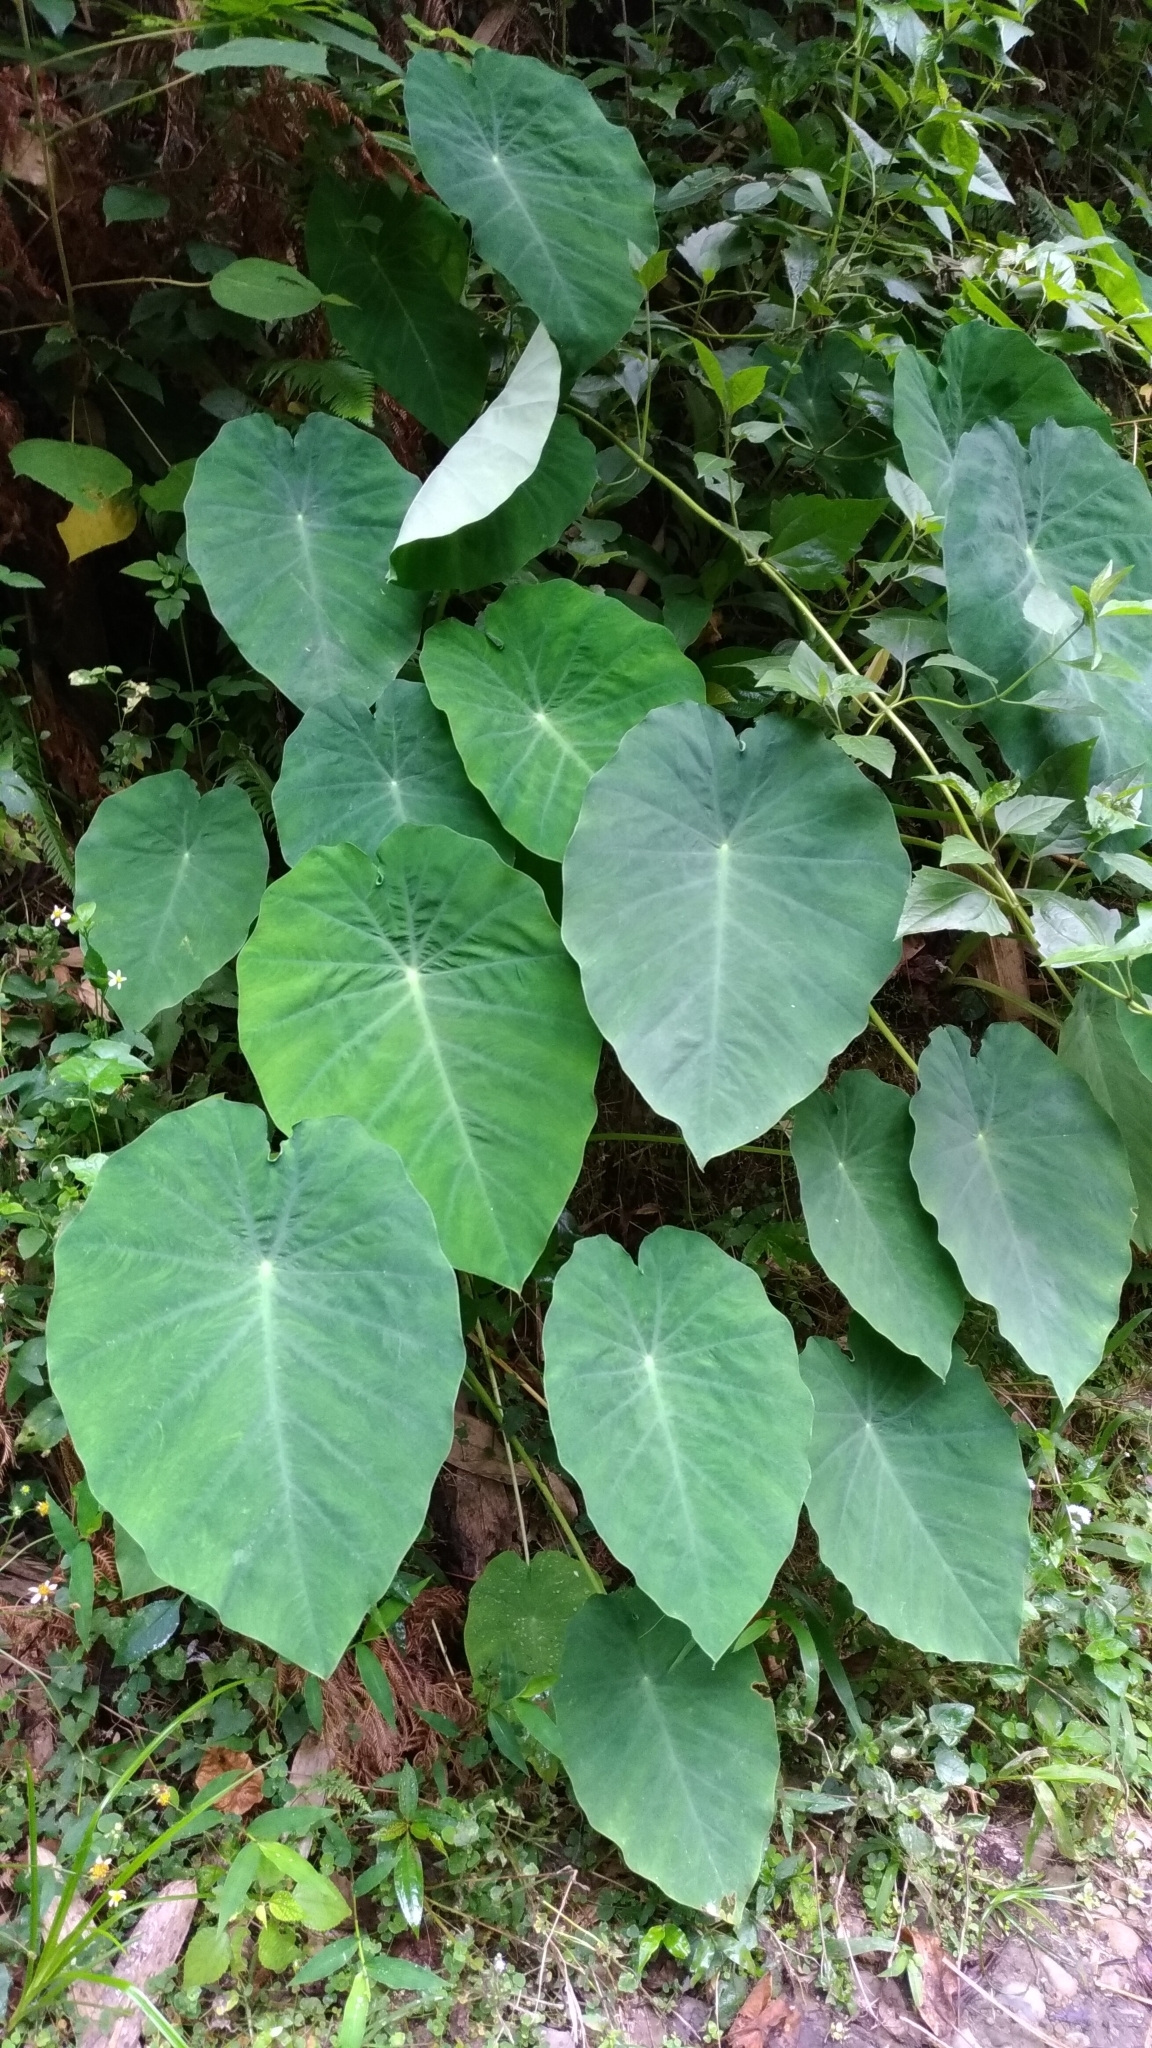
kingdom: Plantae
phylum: Tracheophyta
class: Liliopsida
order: Alismatales
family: Araceae
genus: Colocasia
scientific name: Colocasia esculenta
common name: Taro
